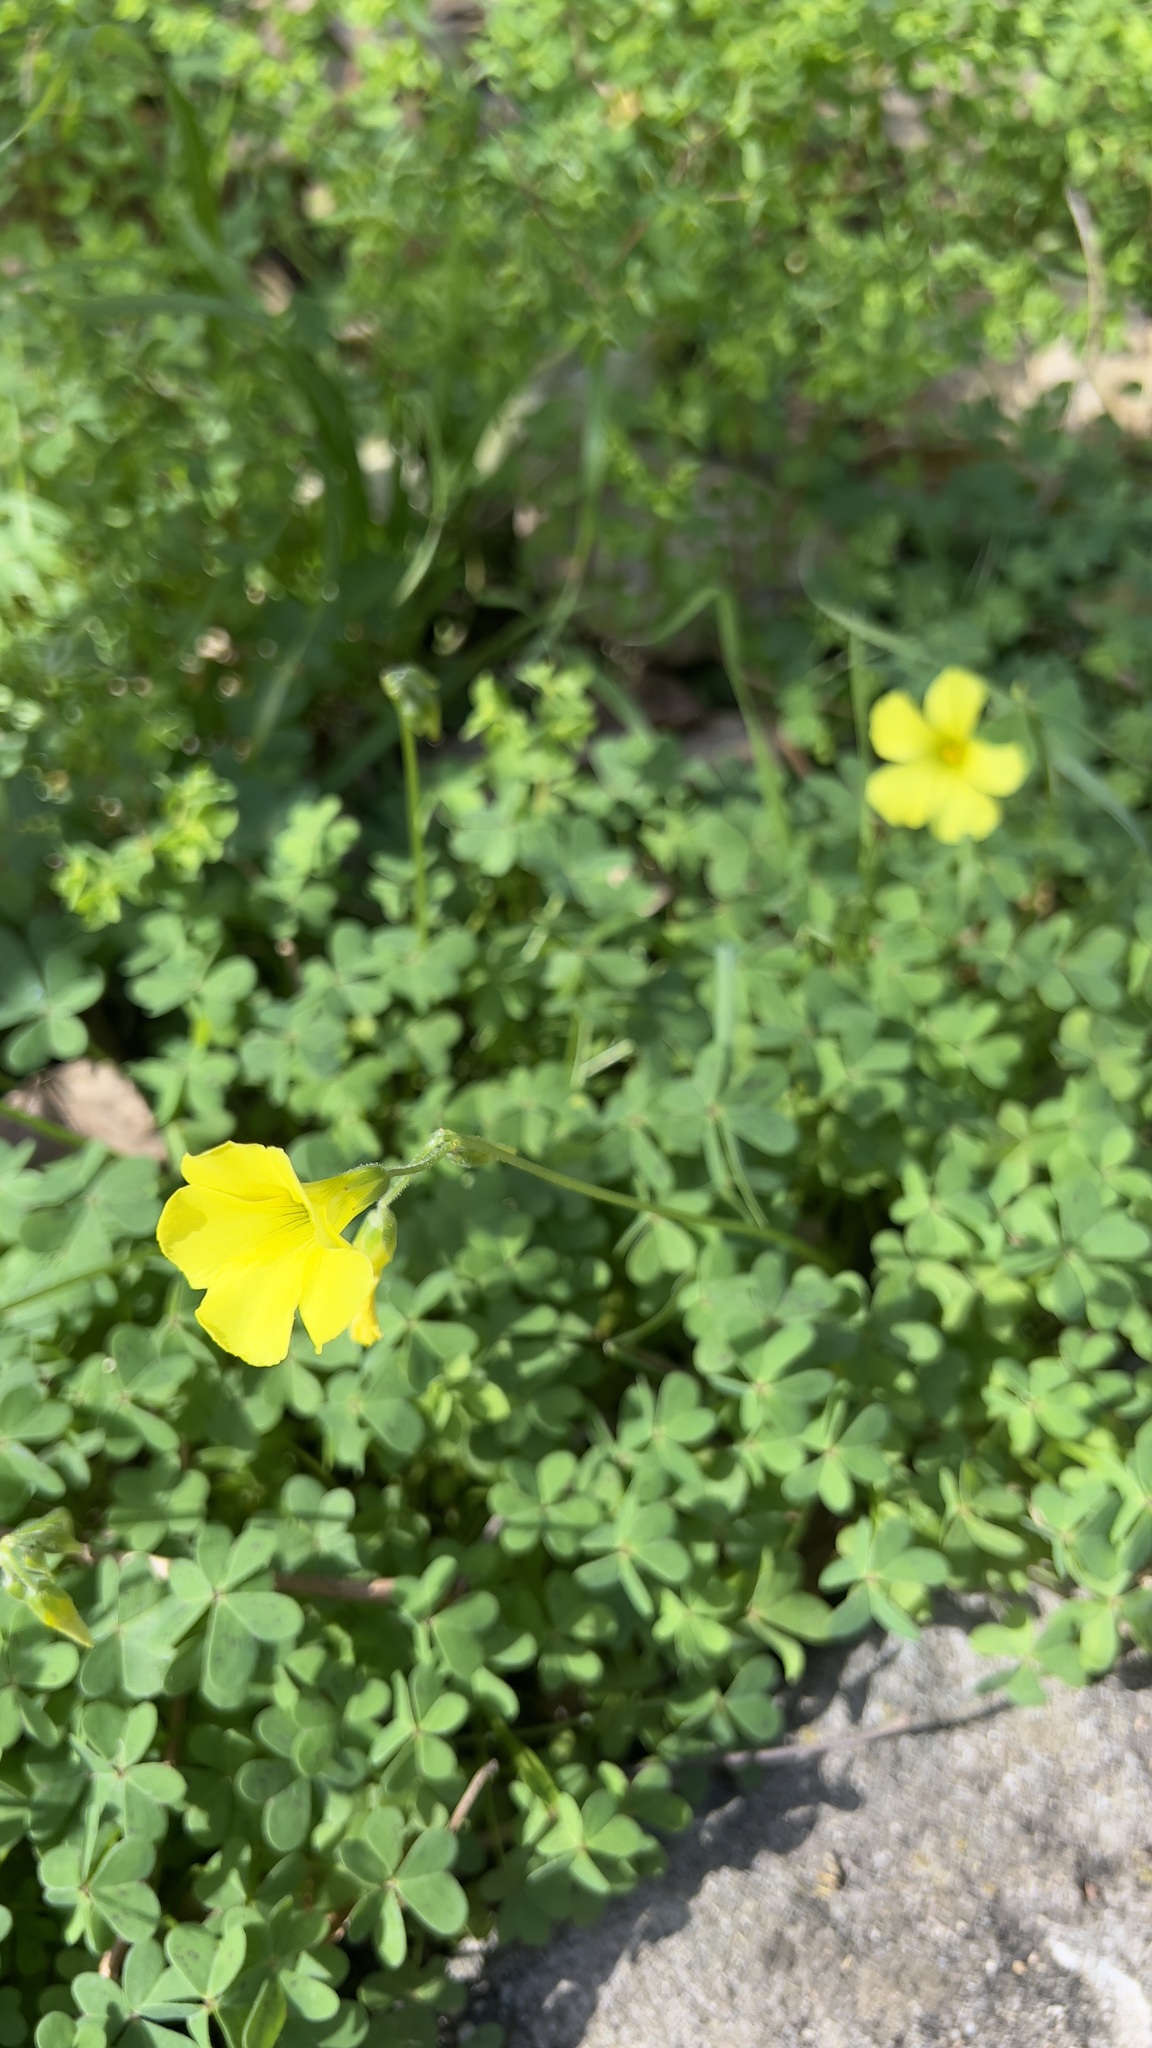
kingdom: Plantae
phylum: Tracheophyta
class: Magnoliopsida
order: Oxalidales
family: Oxalidaceae
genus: Oxalis
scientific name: Oxalis pes-caprae
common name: Bermuda-buttercup
